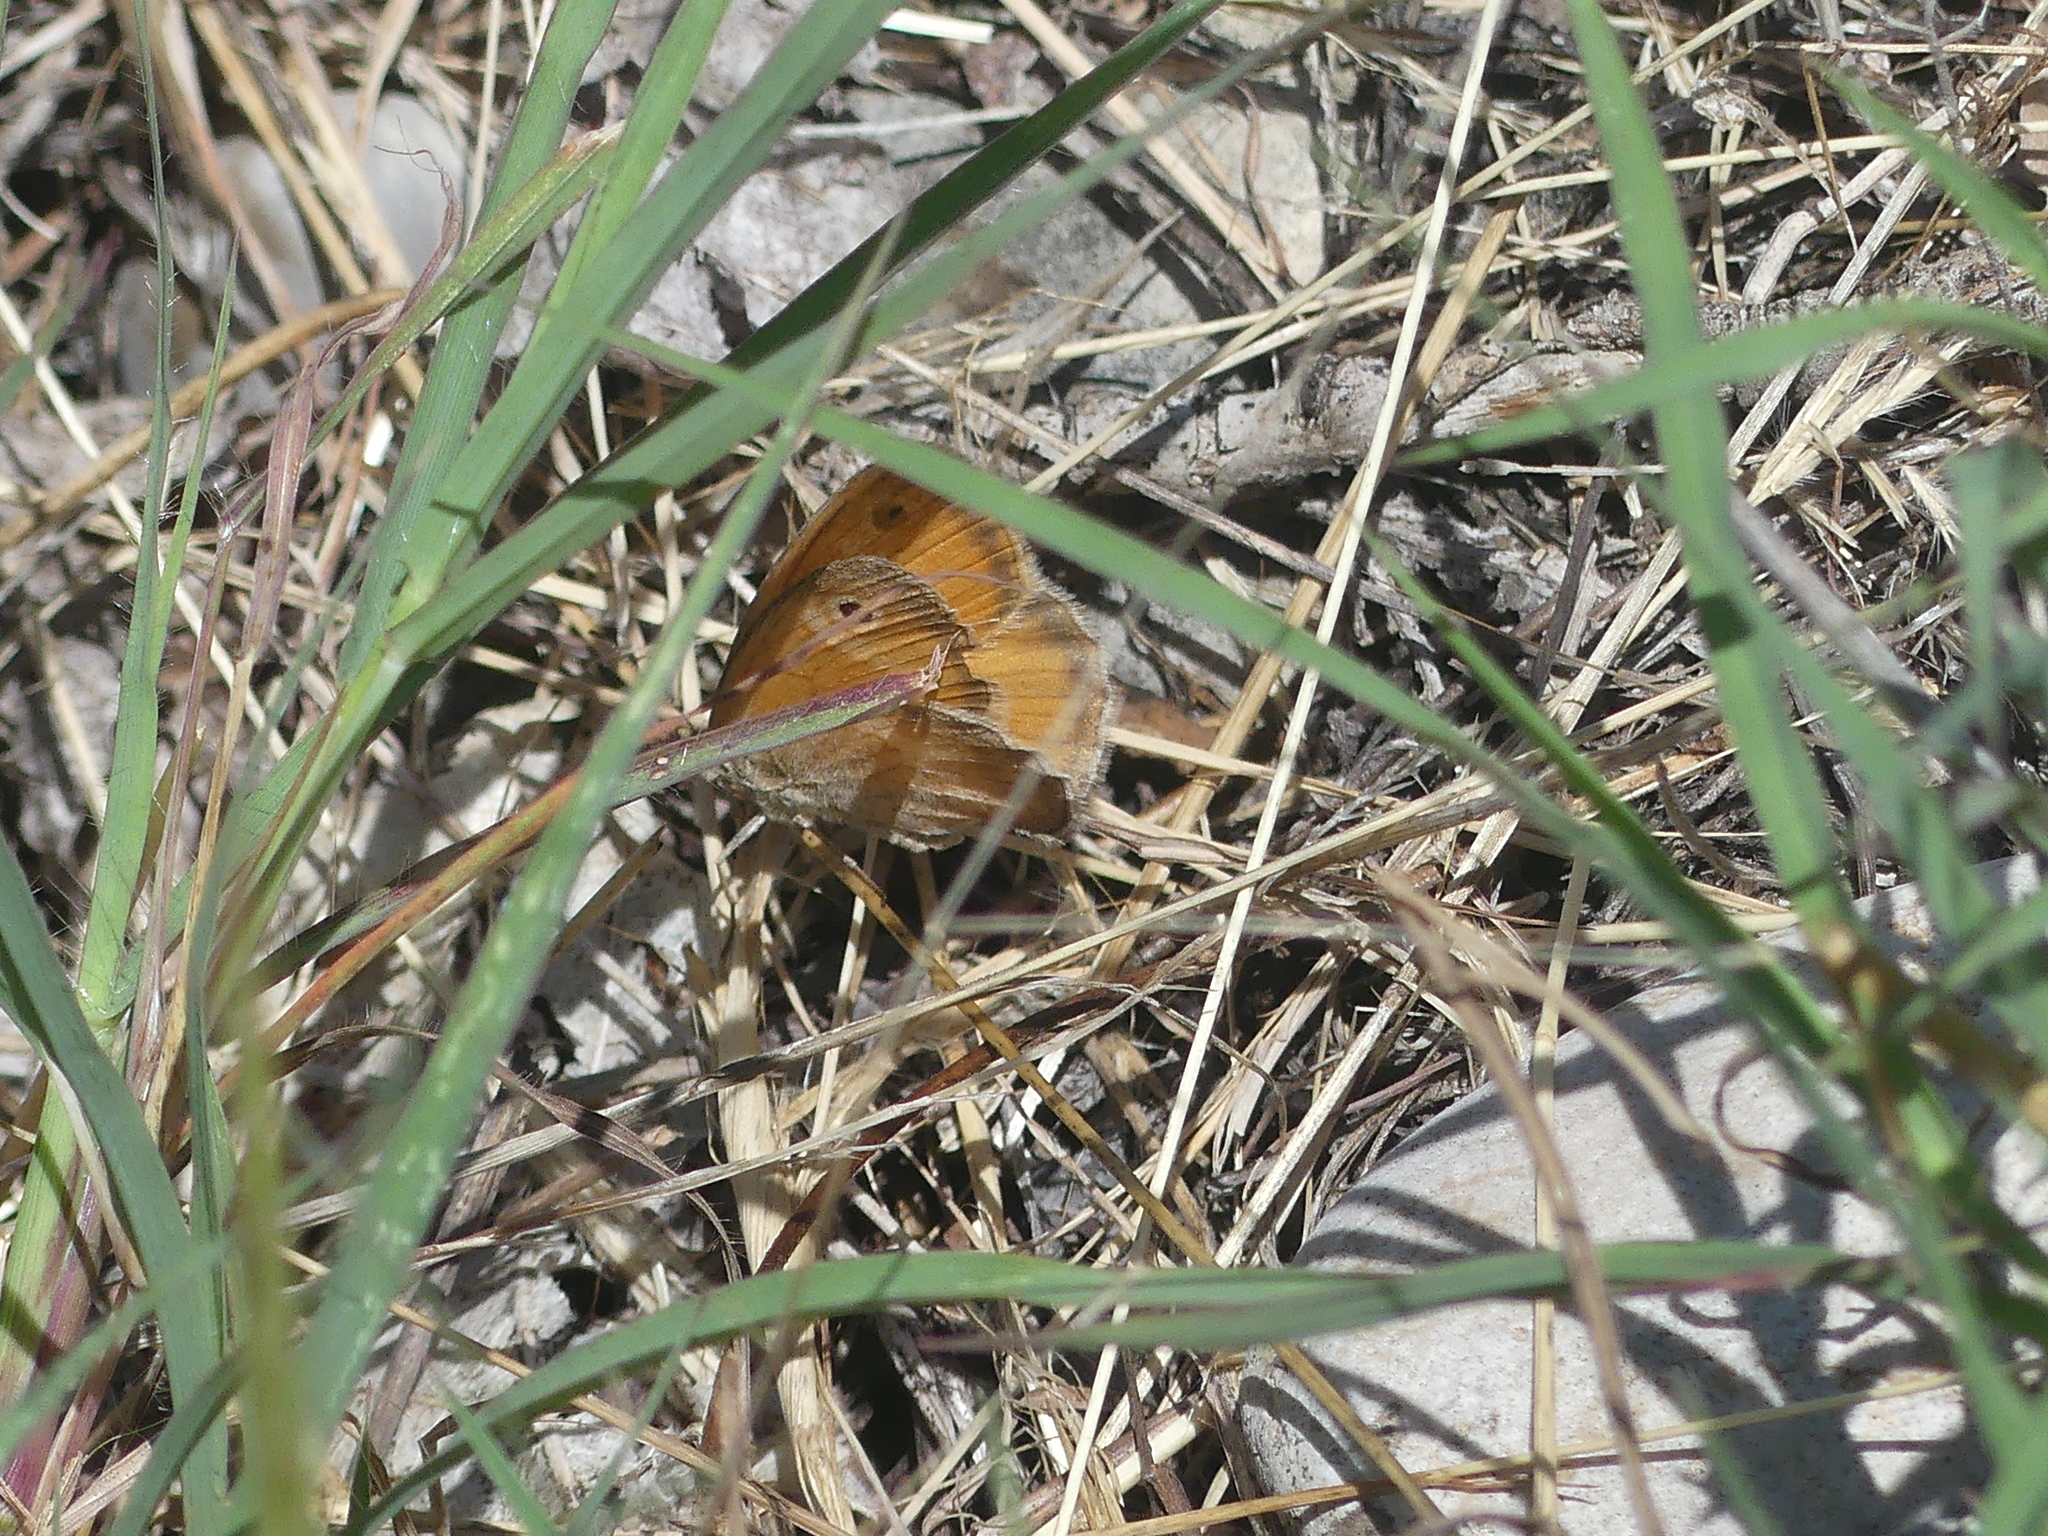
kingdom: Animalia
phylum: Arthropoda
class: Insecta
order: Lepidoptera
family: Nymphalidae
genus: Coenonympha
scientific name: Coenonympha pamphilus
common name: Small heath
